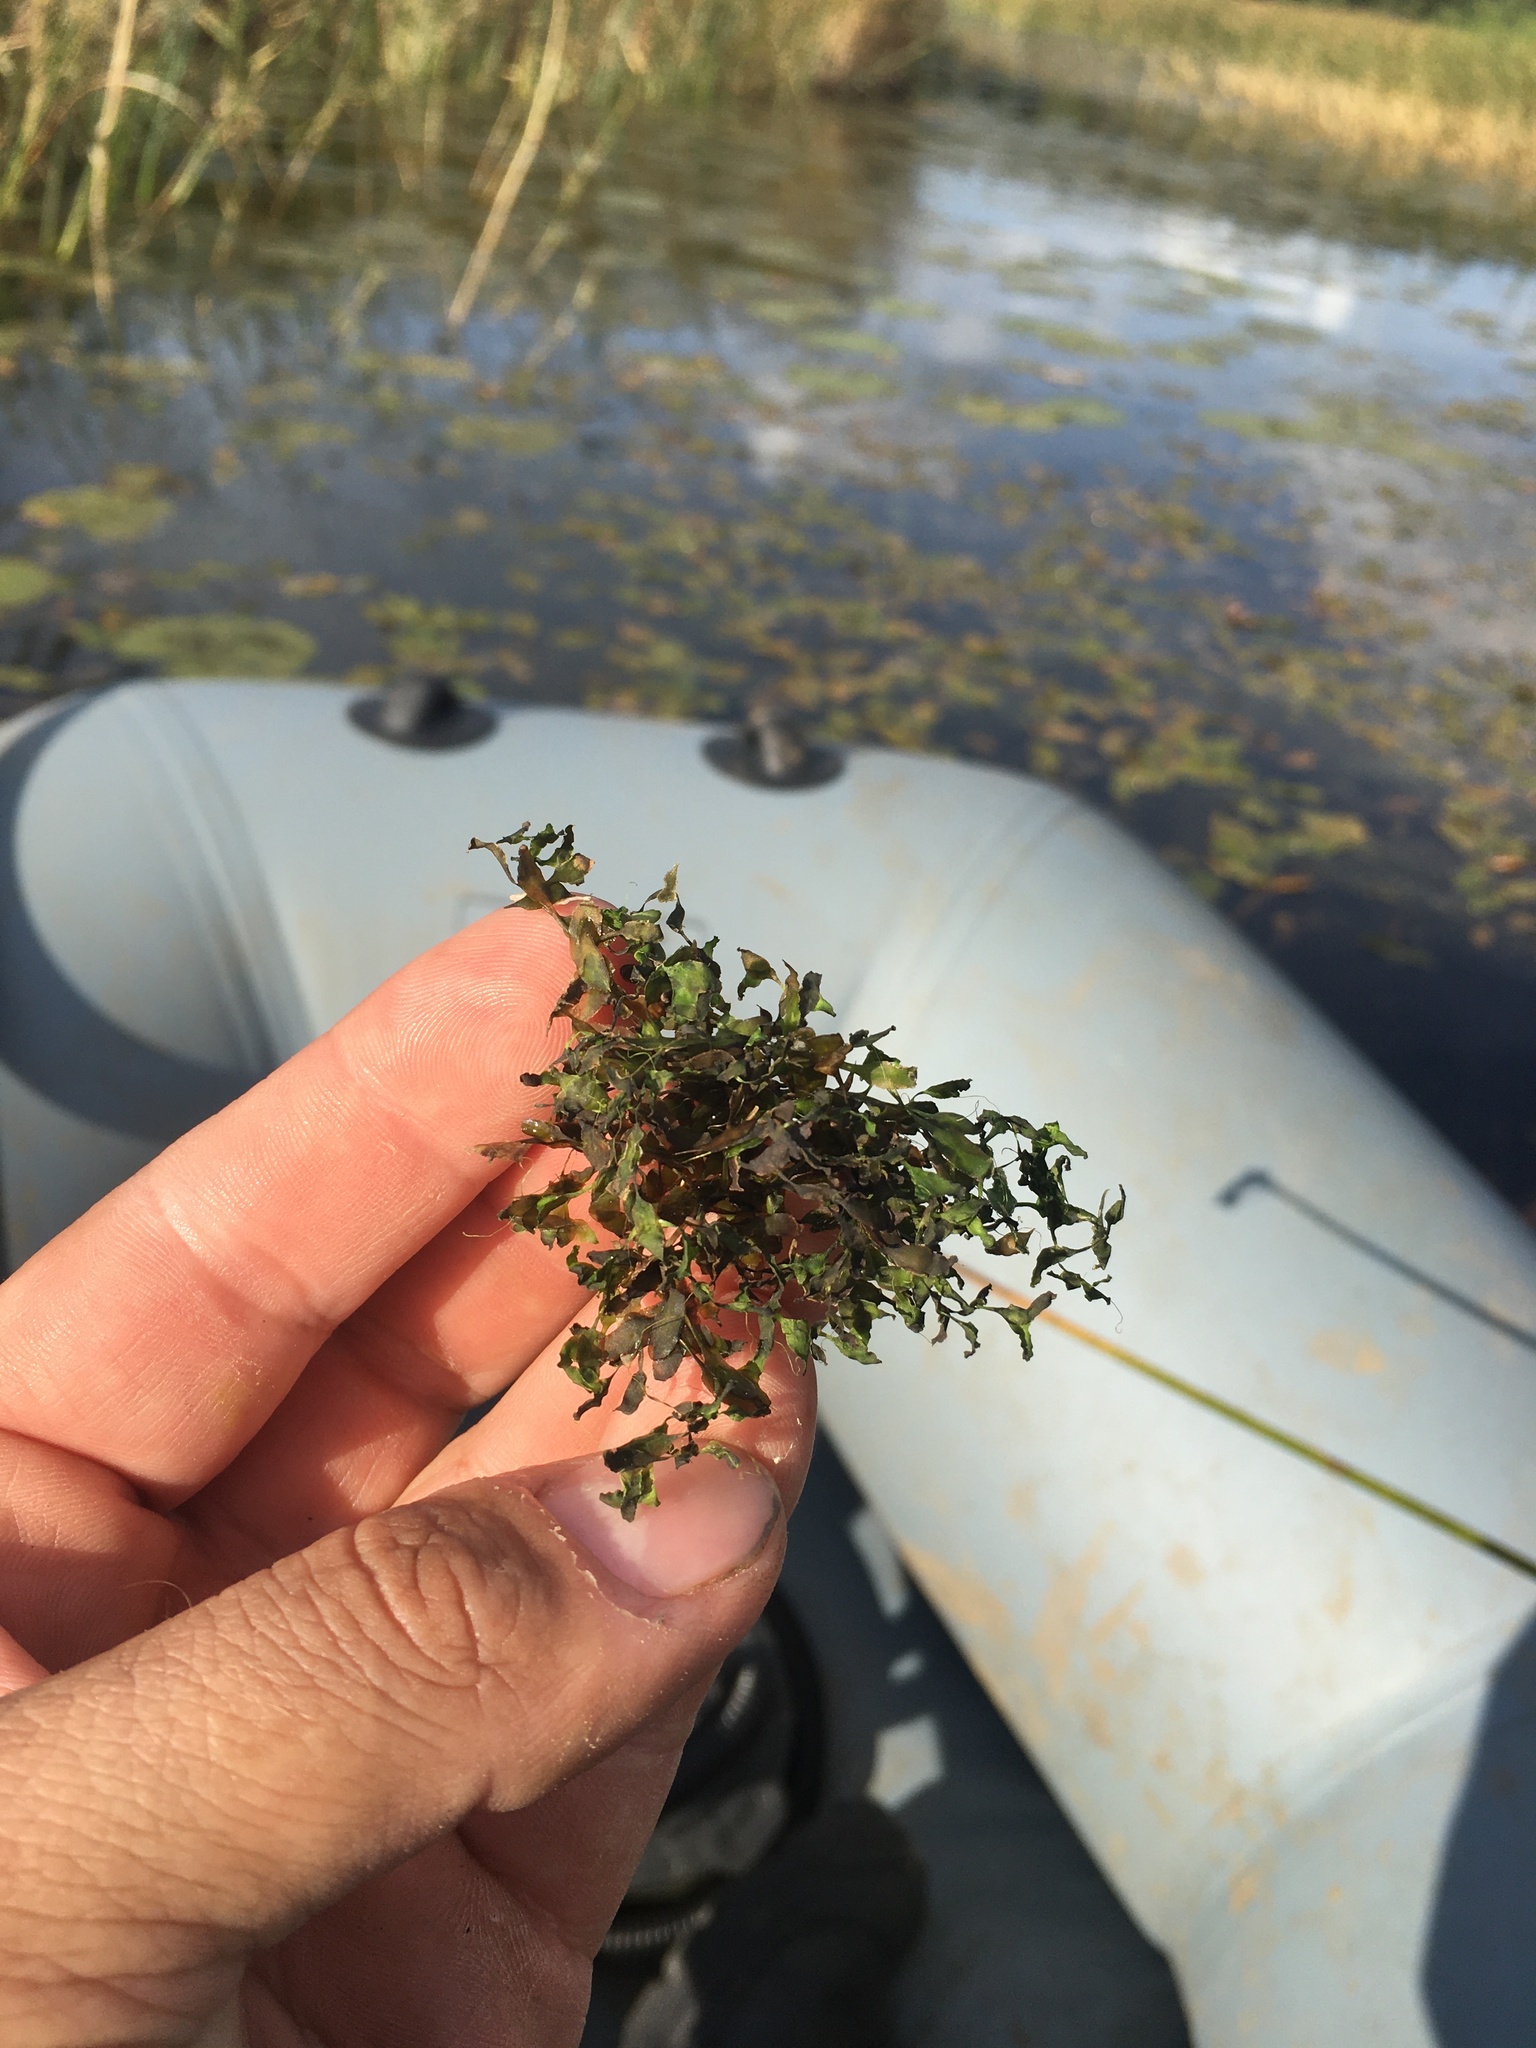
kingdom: Plantae
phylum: Tracheophyta
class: Liliopsida
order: Alismatales
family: Araceae
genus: Lemna
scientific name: Lemna trisulca
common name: Ivy-leaved duckweed
